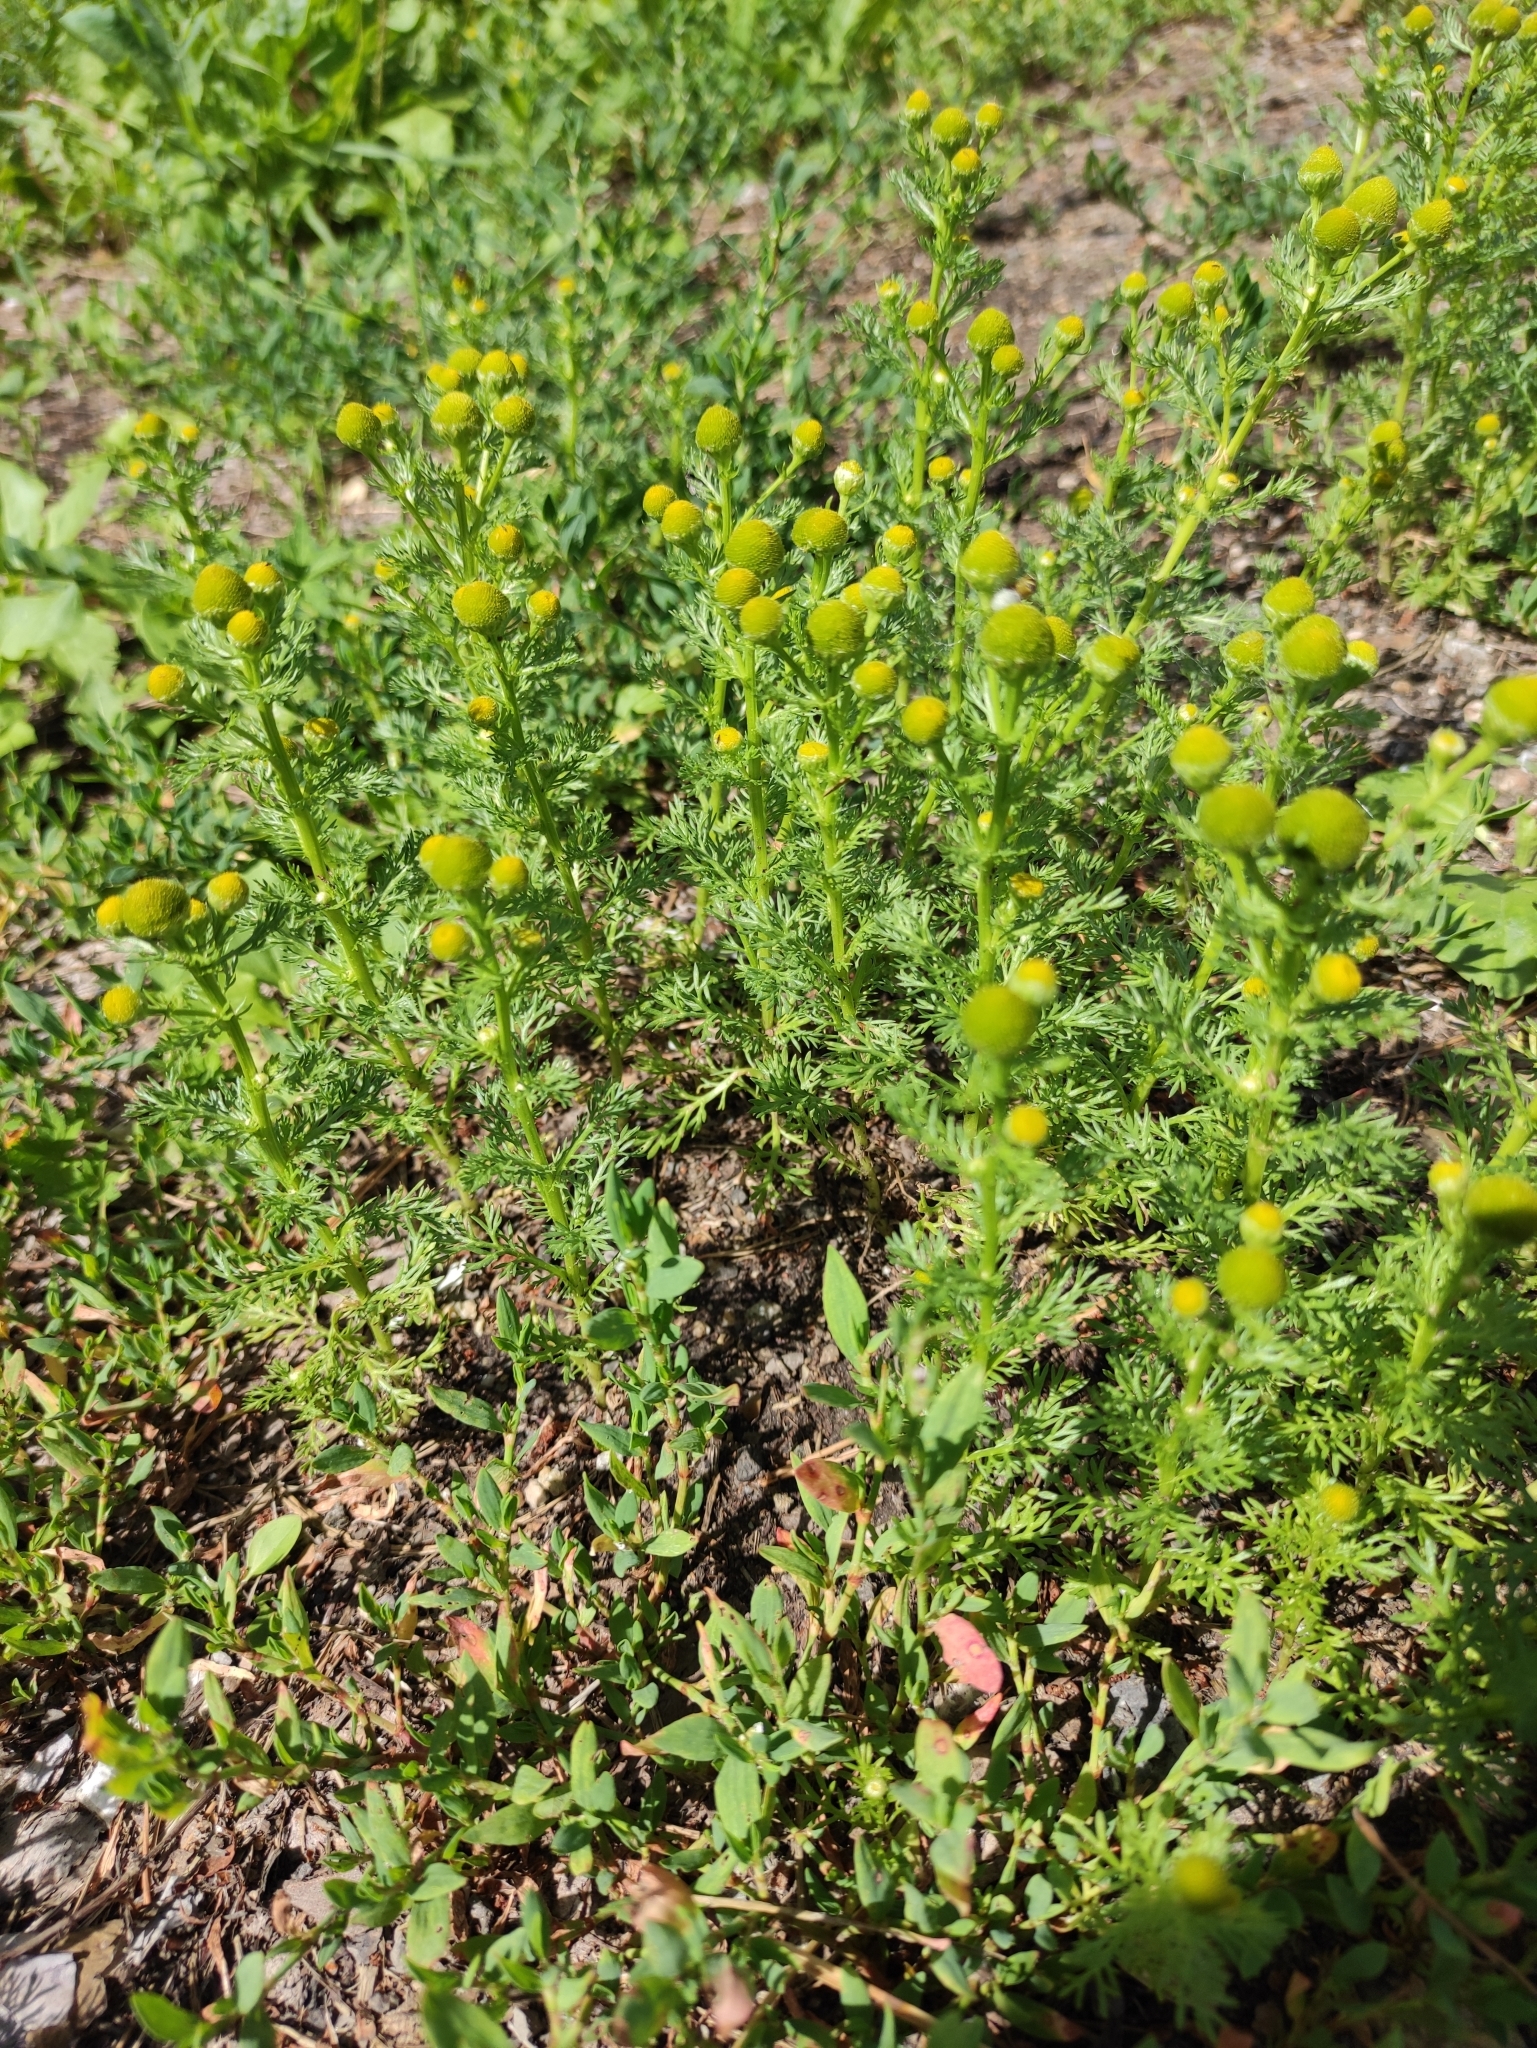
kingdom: Plantae
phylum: Tracheophyta
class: Magnoliopsida
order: Asterales
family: Asteraceae
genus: Matricaria
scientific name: Matricaria discoidea
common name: Disc mayweed
